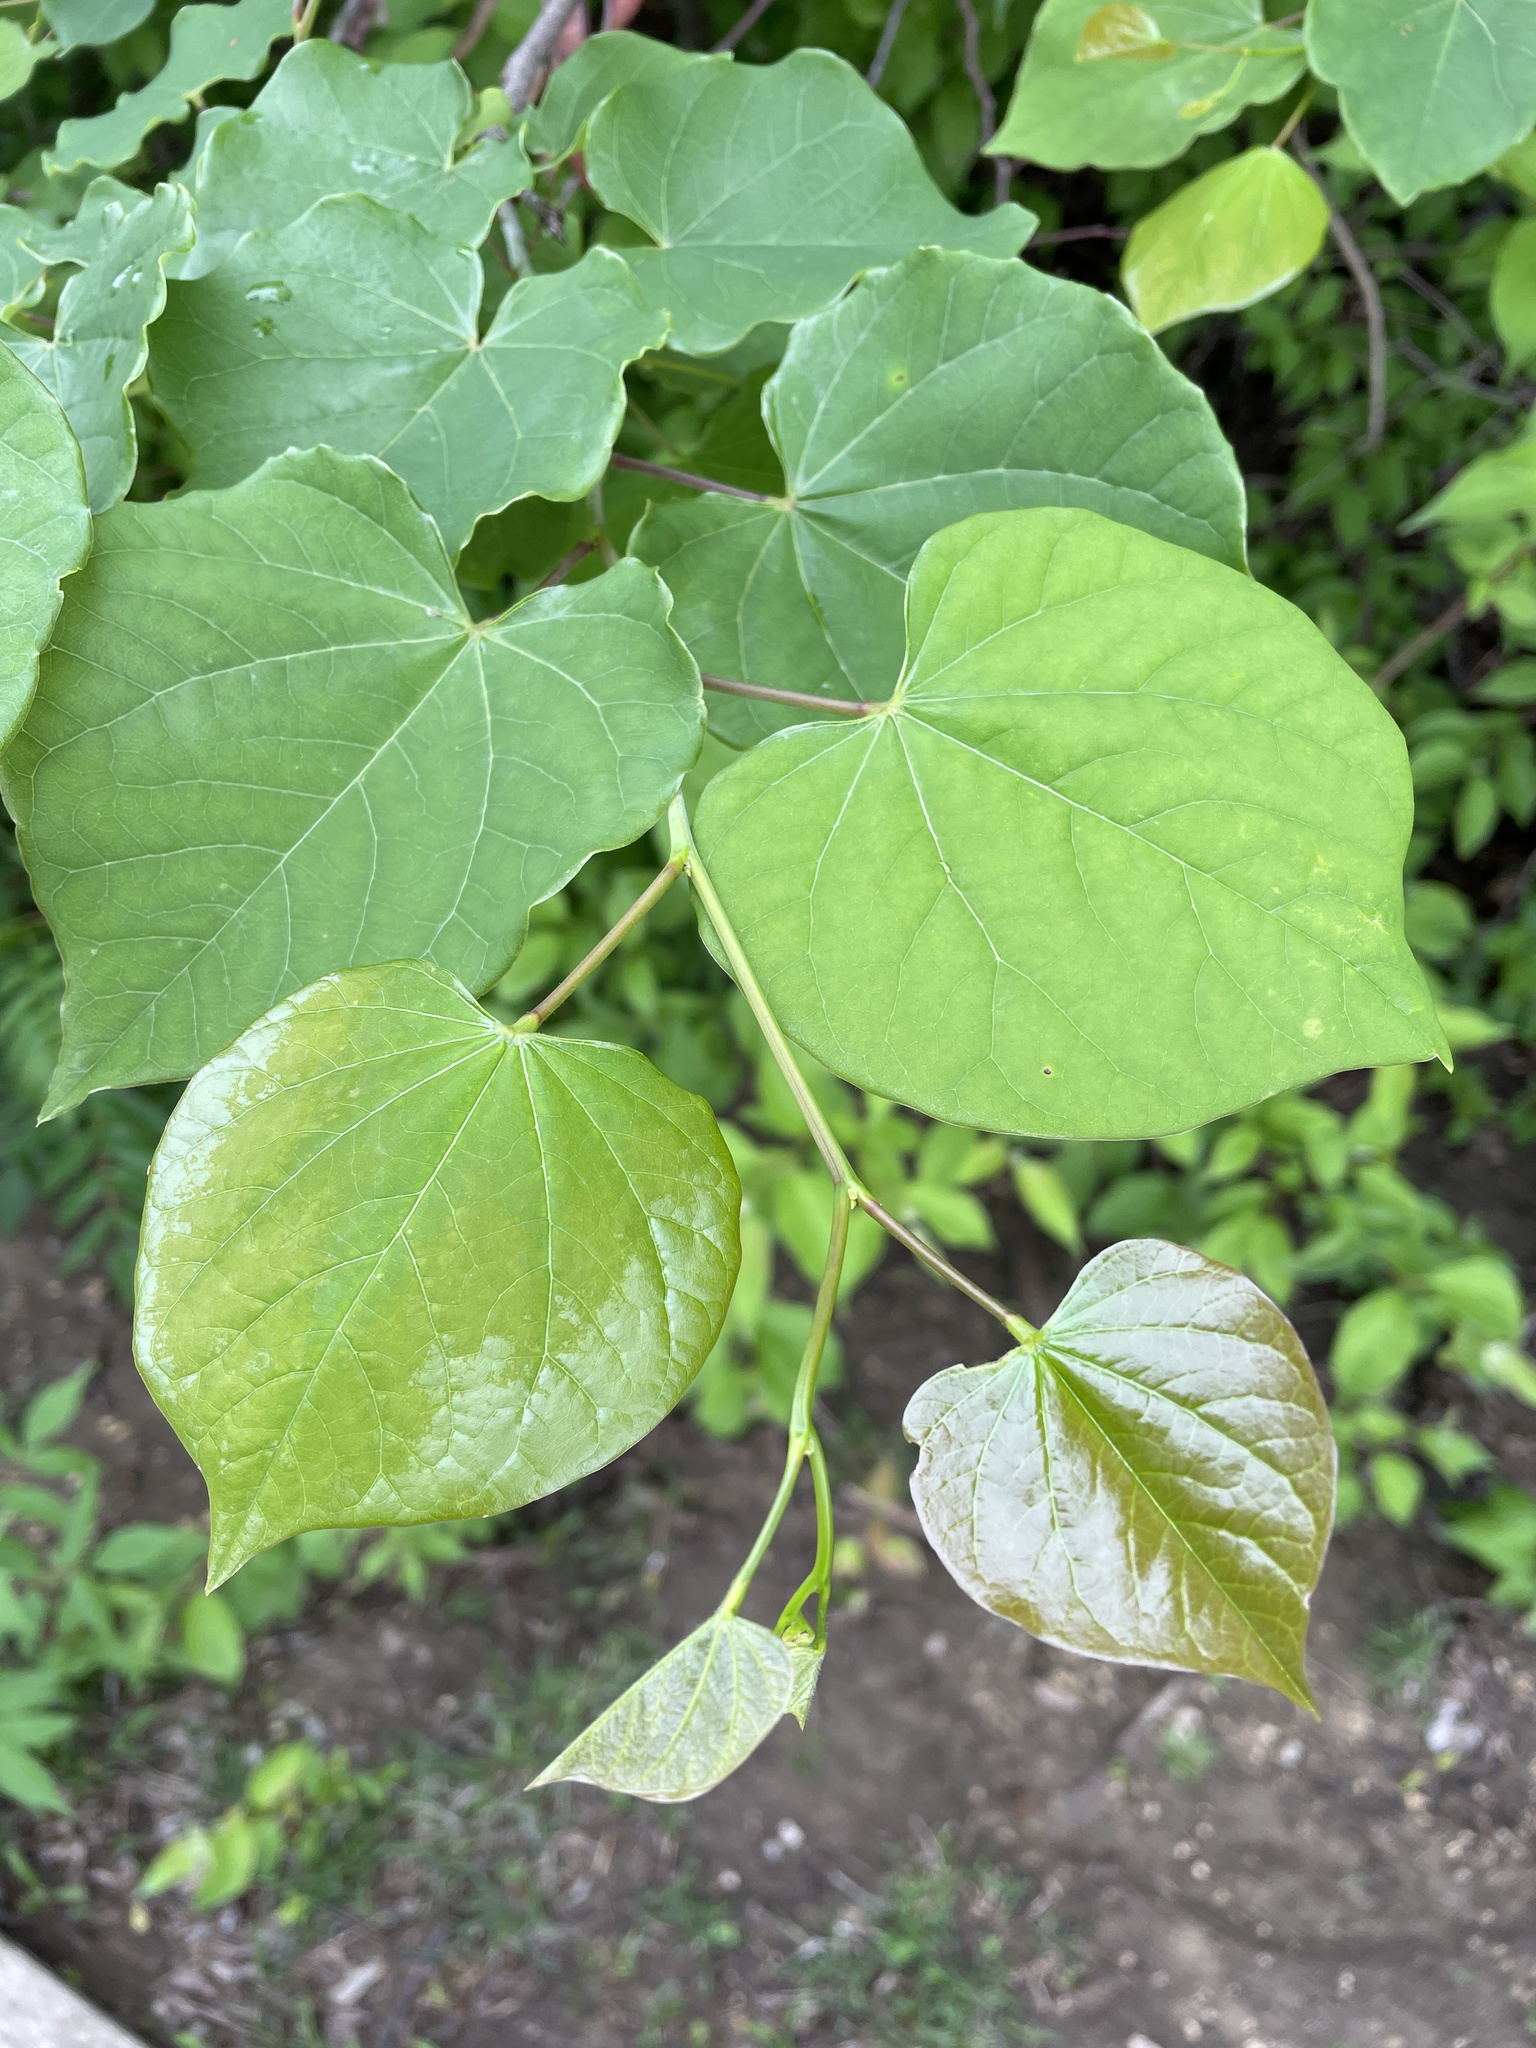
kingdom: Plantae
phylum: Tracheophyta
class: Magnoliopsida
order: Fabales
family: Fabaceae
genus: Cercis
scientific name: Cercis canadensis
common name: Eastern redbud
